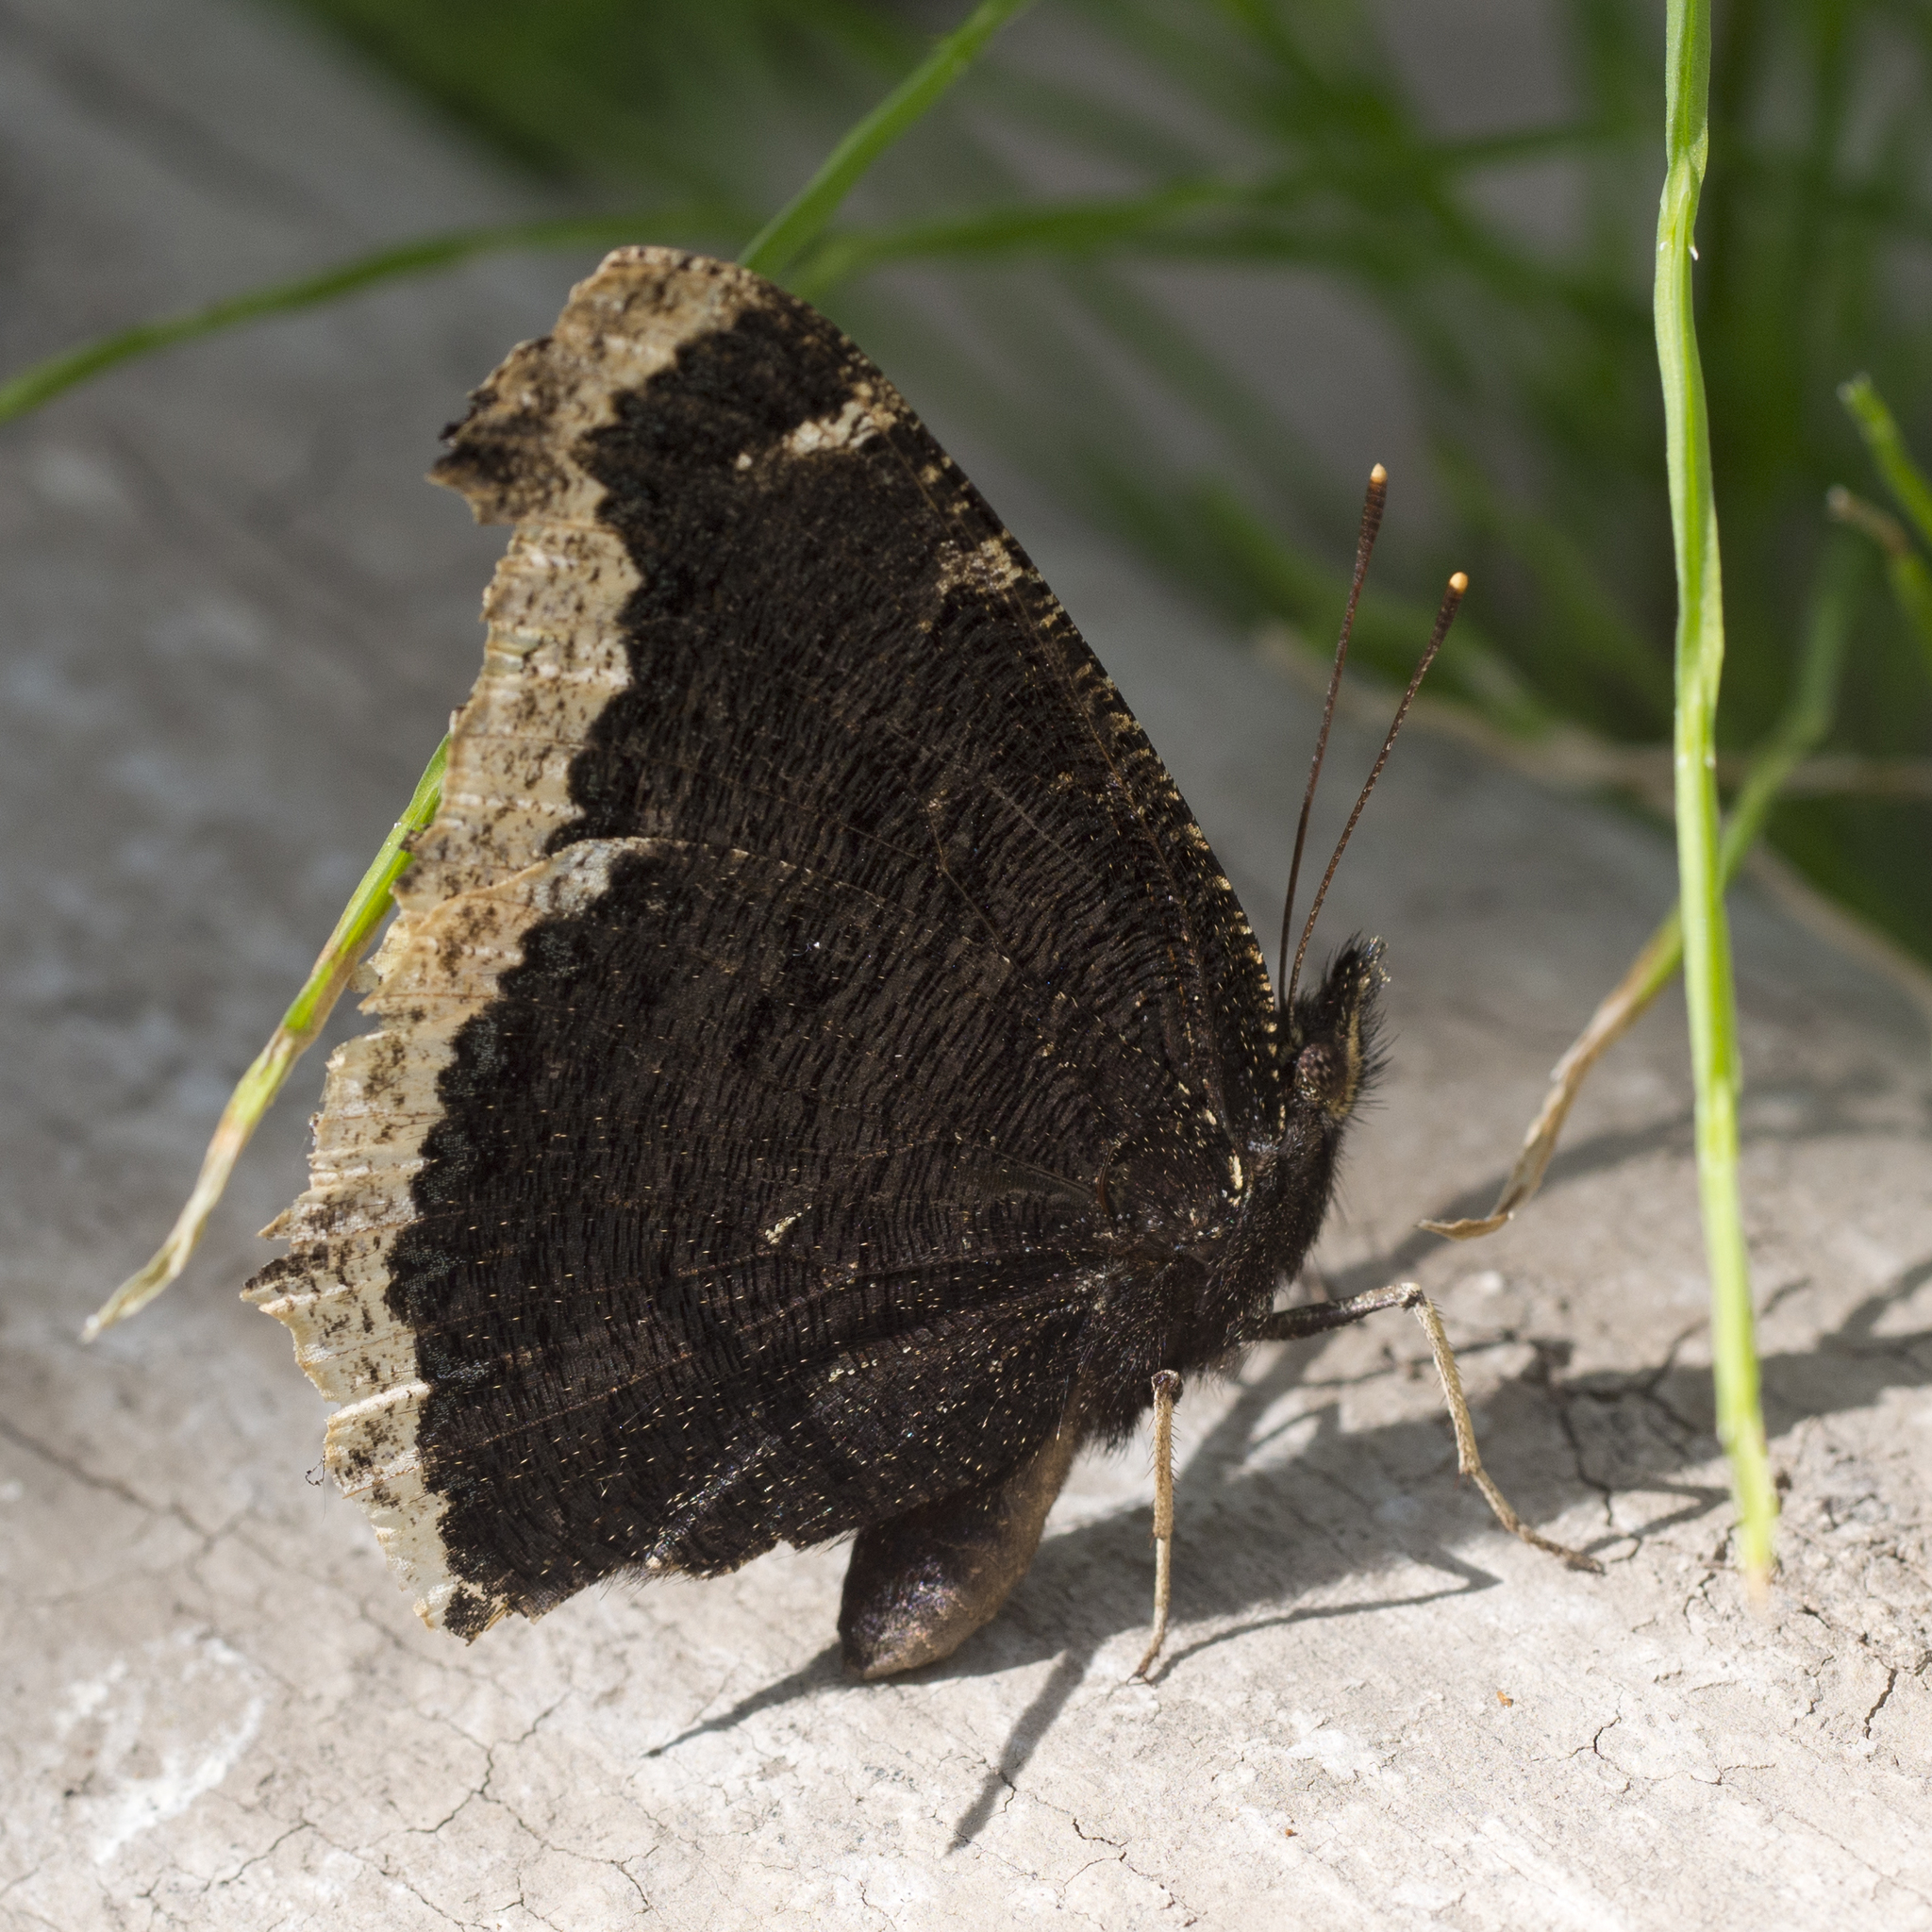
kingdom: Animalia
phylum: Arthropoda
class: Insecta
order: Lepidoptera
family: Nymphalidae
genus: Nymphalis
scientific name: Nymphalis antiopa
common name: Camberwell beauty
